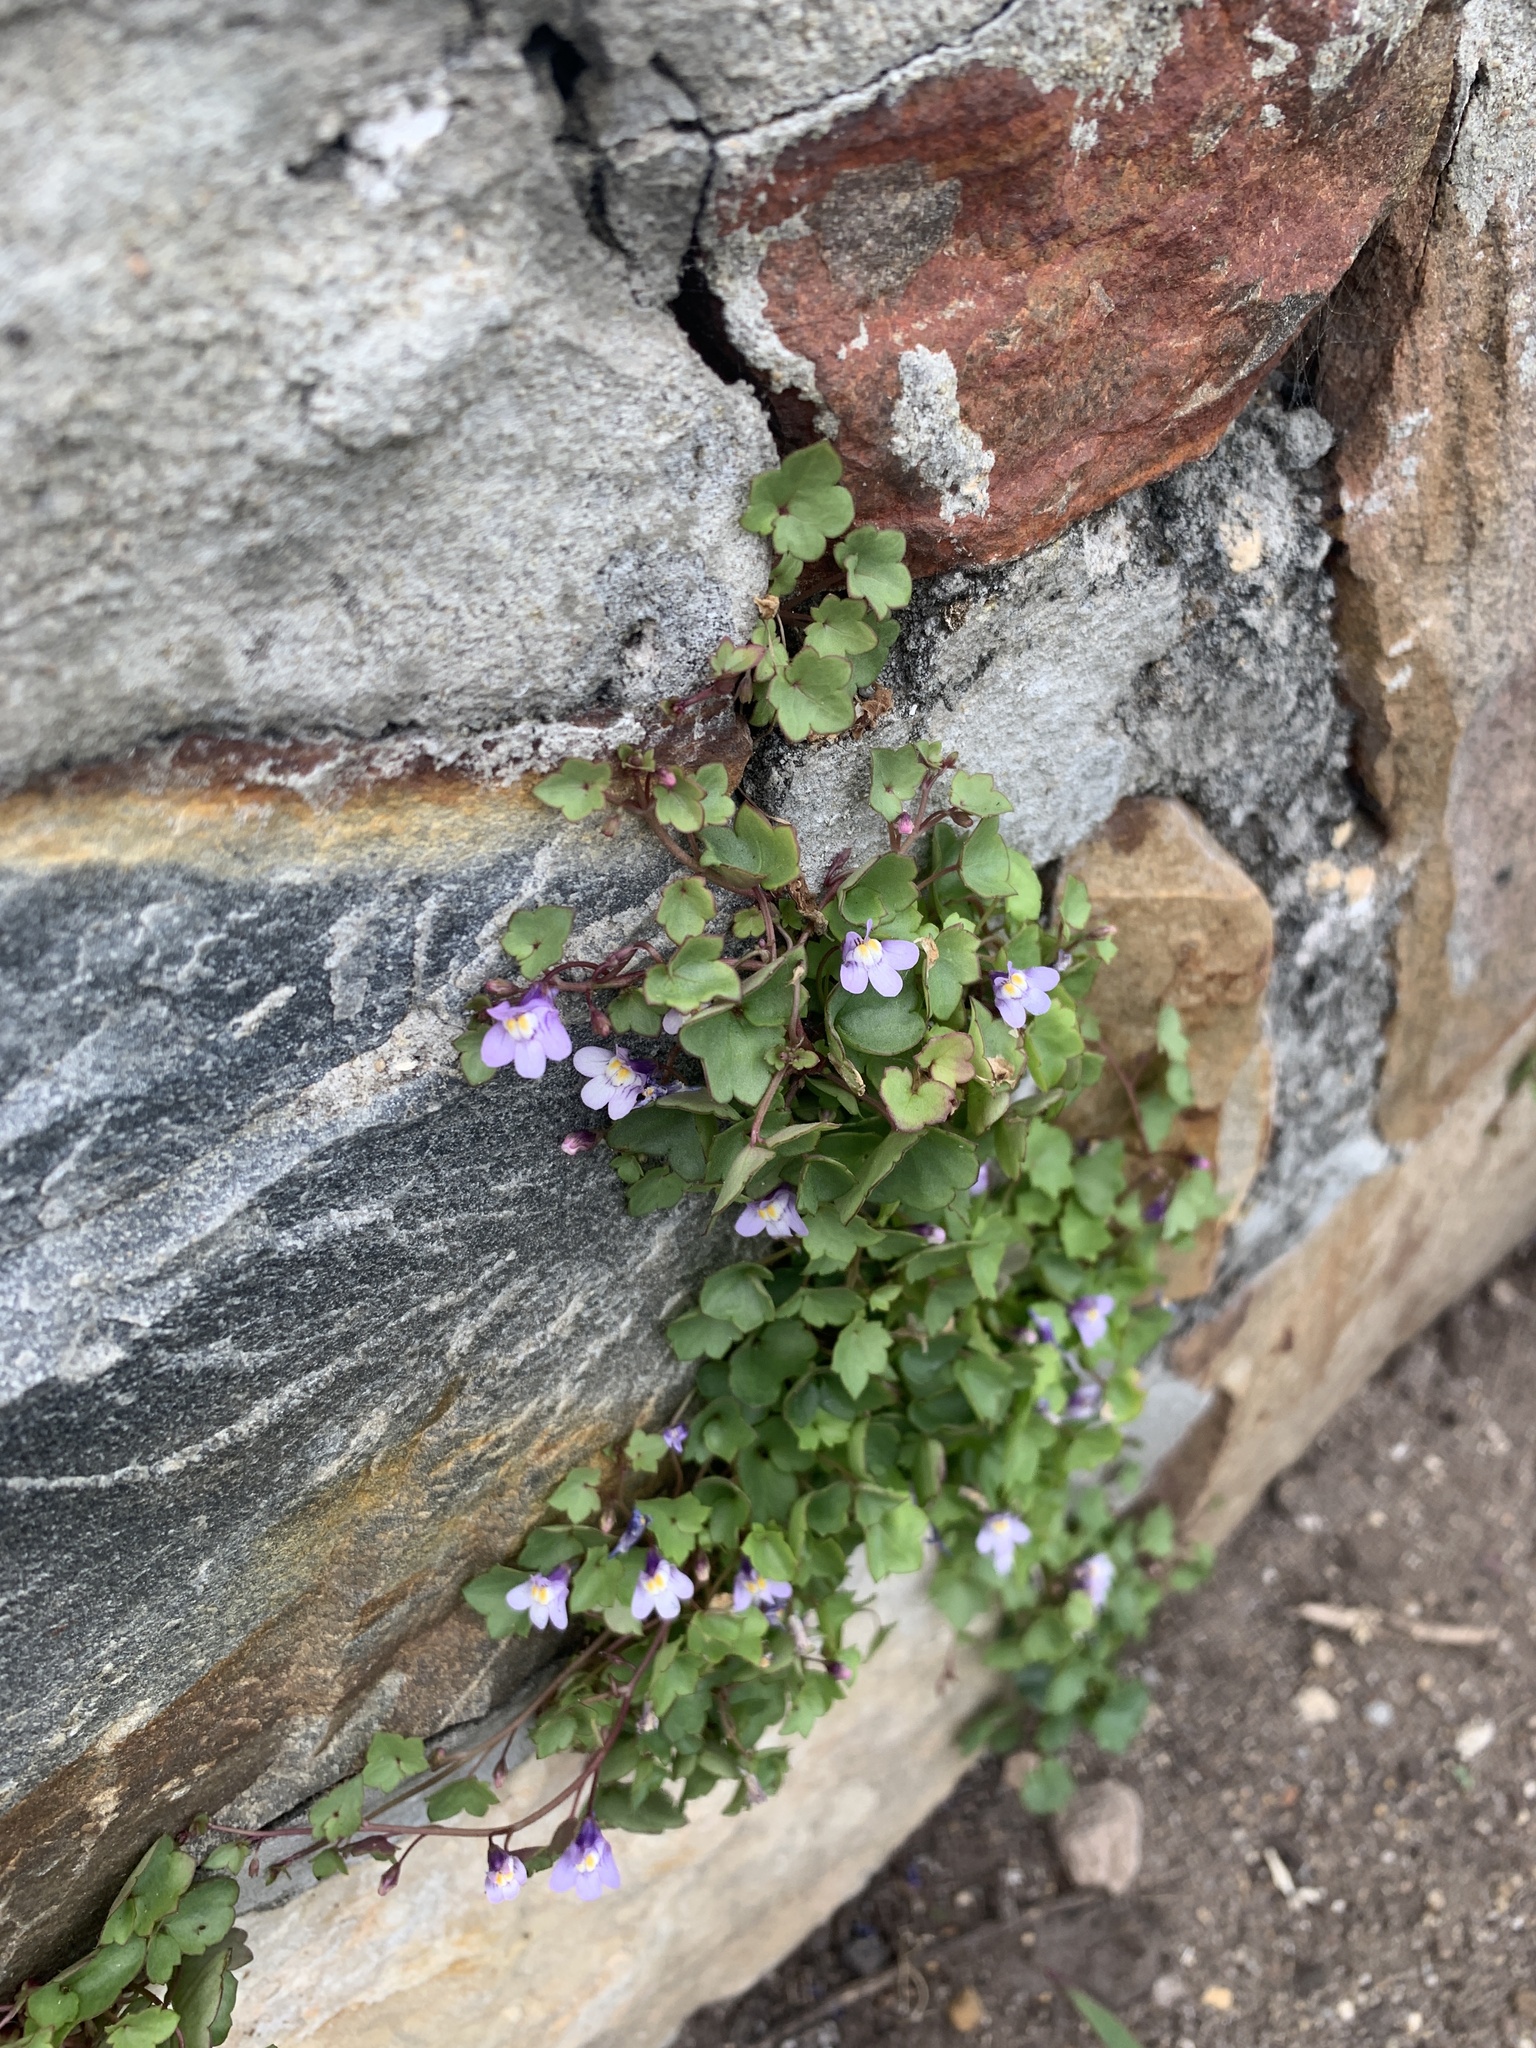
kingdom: Plantae
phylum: Tracheophyta
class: Magnoliopsida
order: Lamiales
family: Plantaginaceae
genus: Cymbalaria
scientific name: Cymbalaria muralis
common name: Ivy-leaved toadflax
